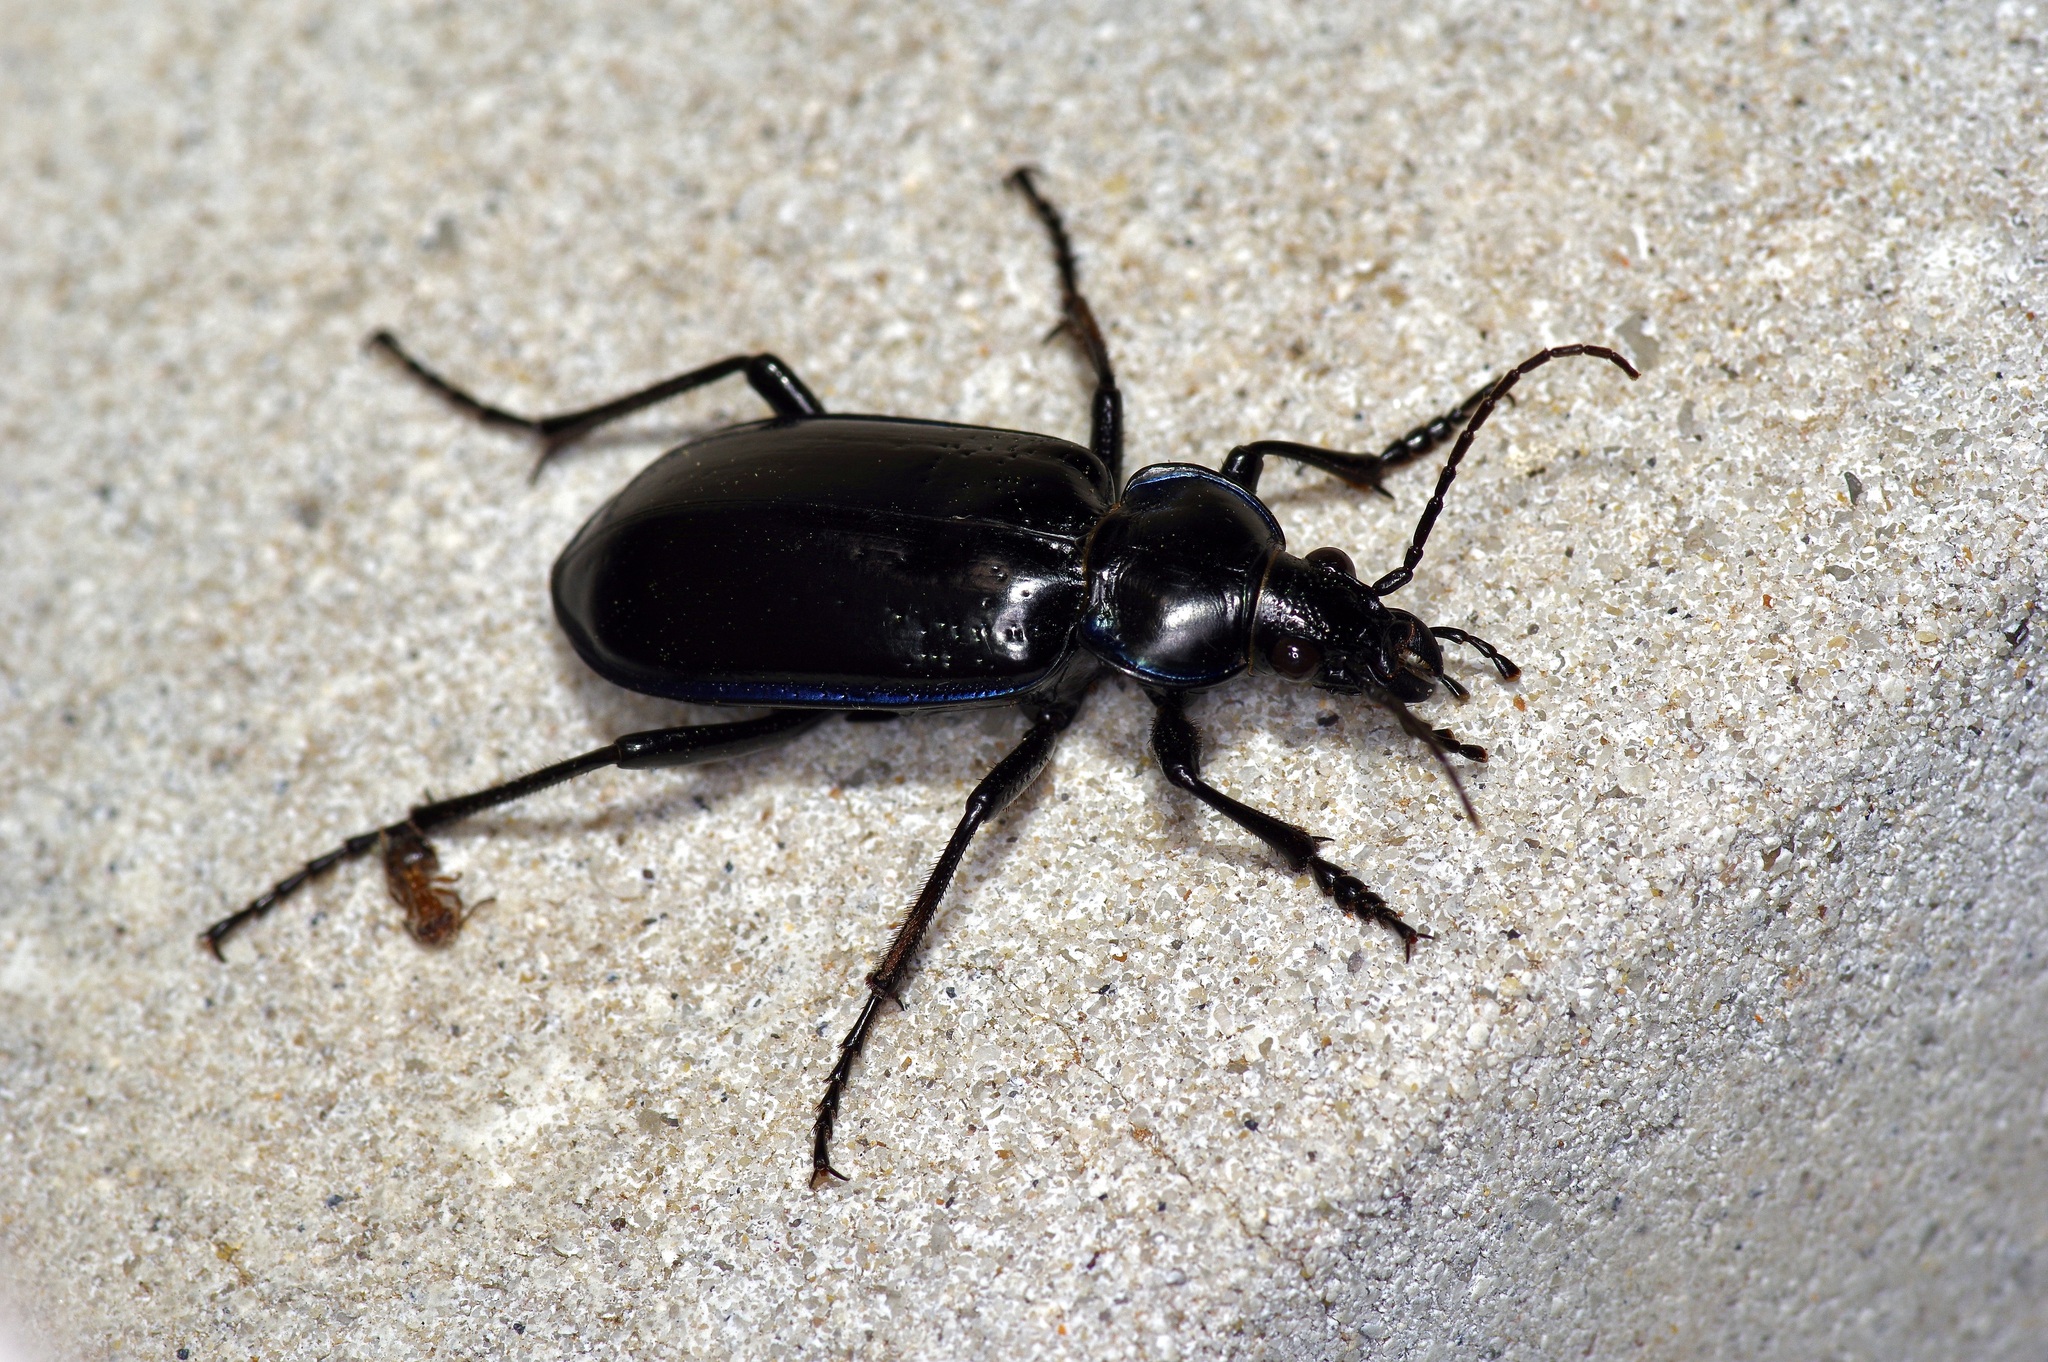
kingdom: Animalia
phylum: Arthropoda
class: Insecta
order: Coleoptera
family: Carabidae
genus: Calosoma
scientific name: Calosoma marginale
